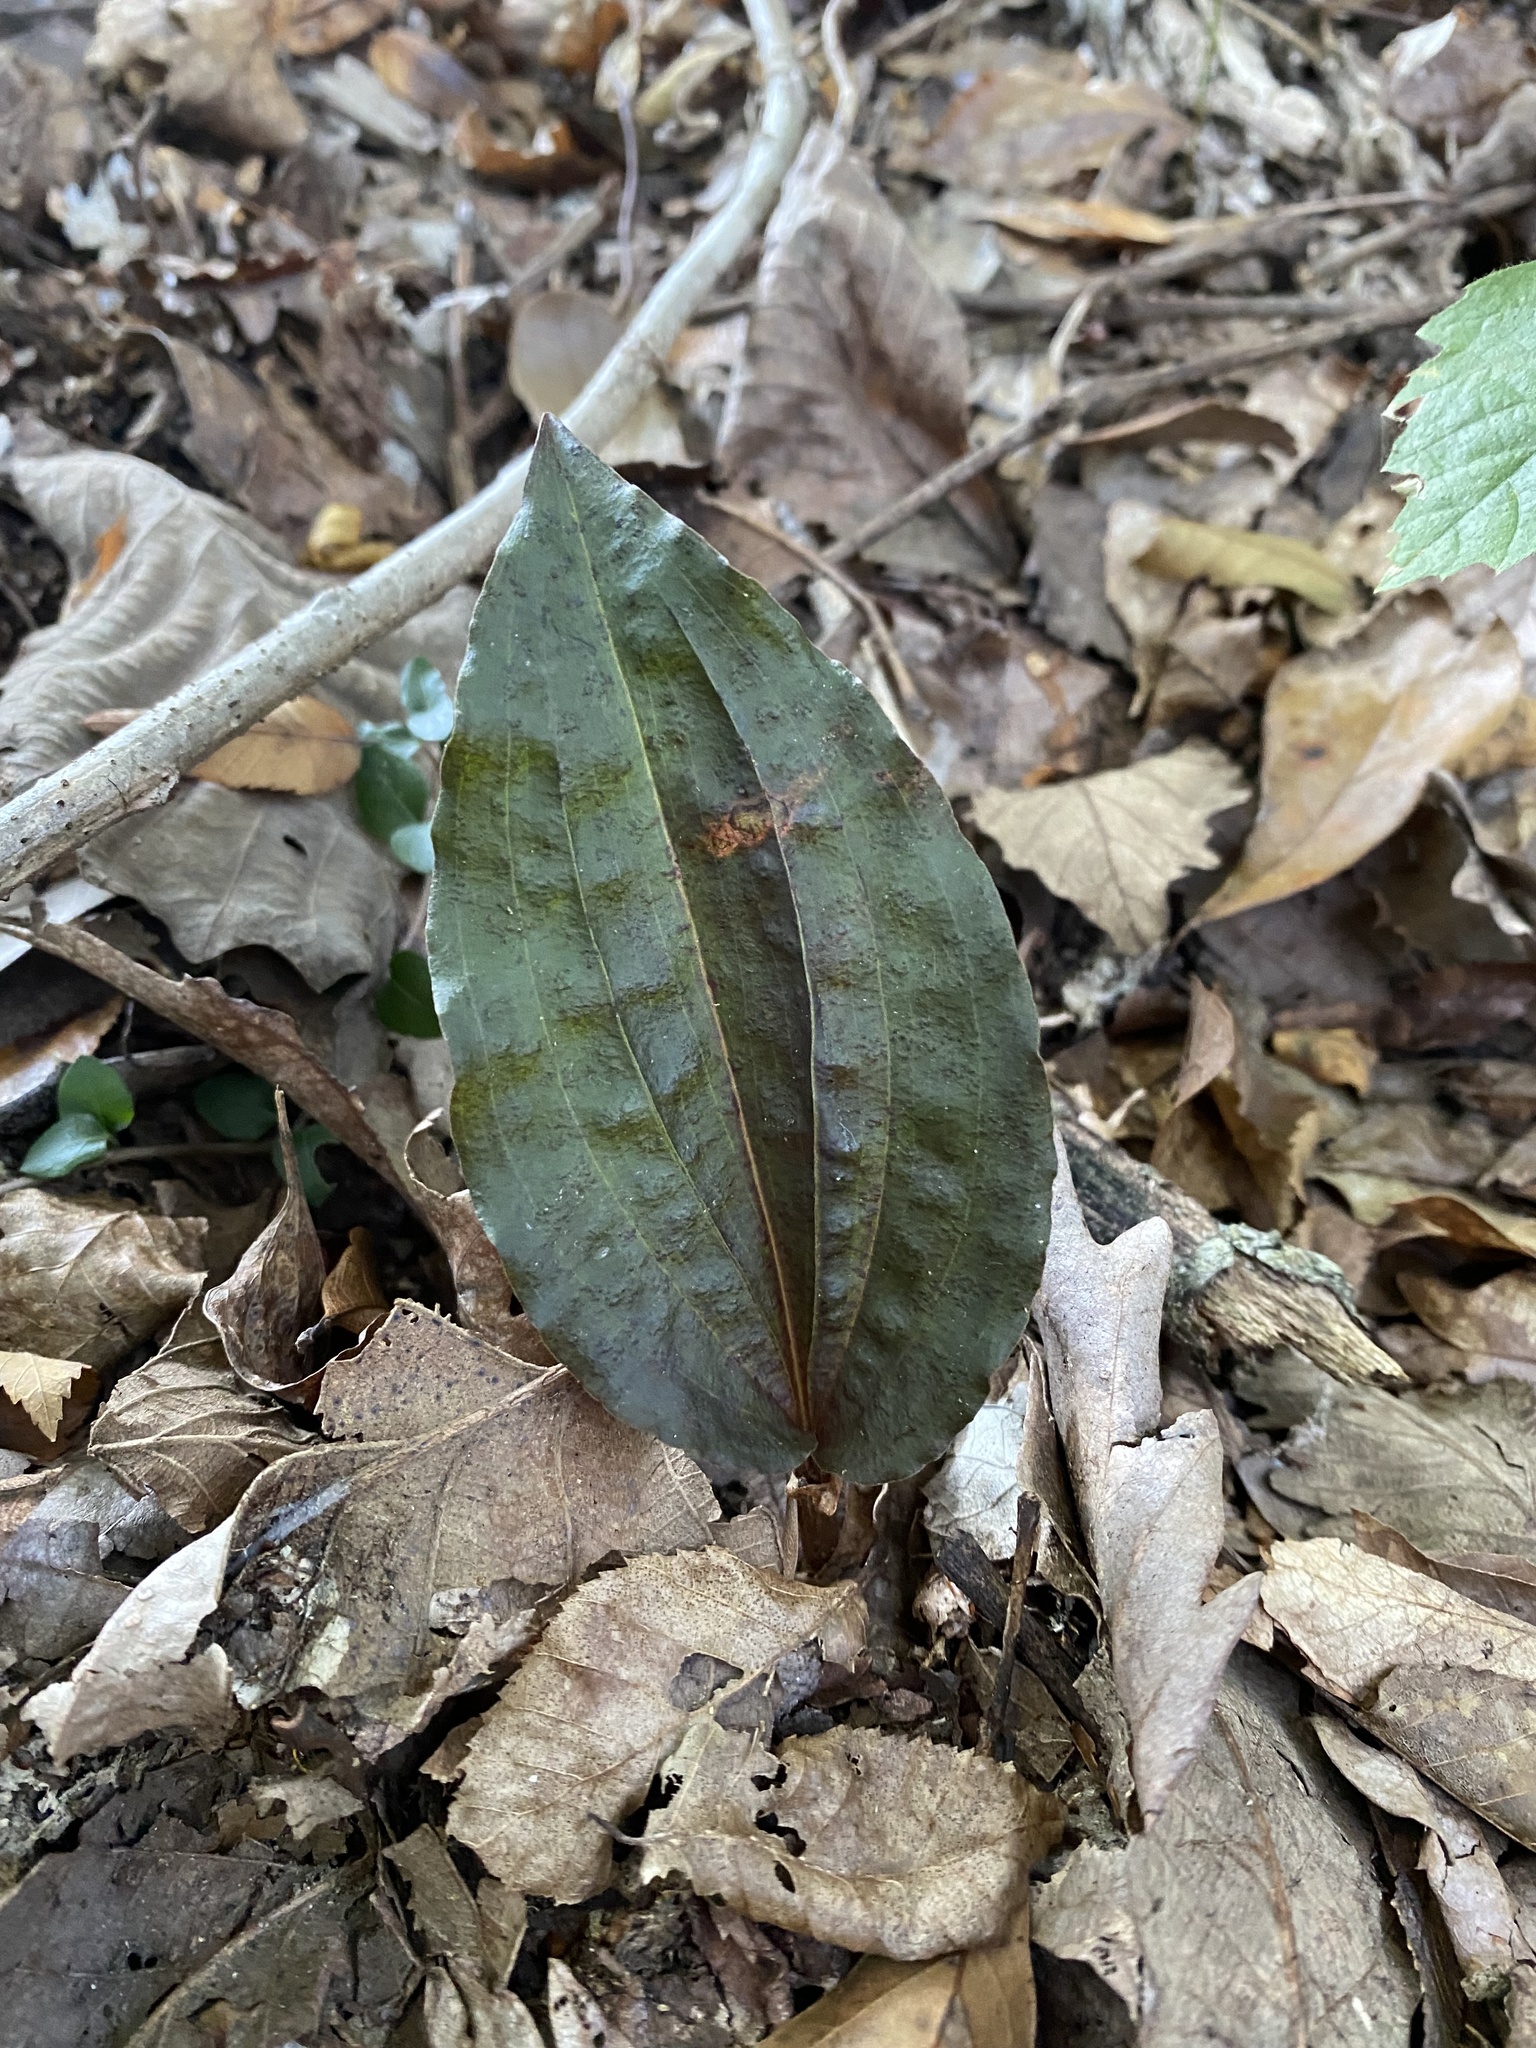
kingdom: Plantae
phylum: Tracheophyta
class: Liliopsida
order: Asparagales
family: Orchidaceae
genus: Tipularia
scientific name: Tipularia discolor
